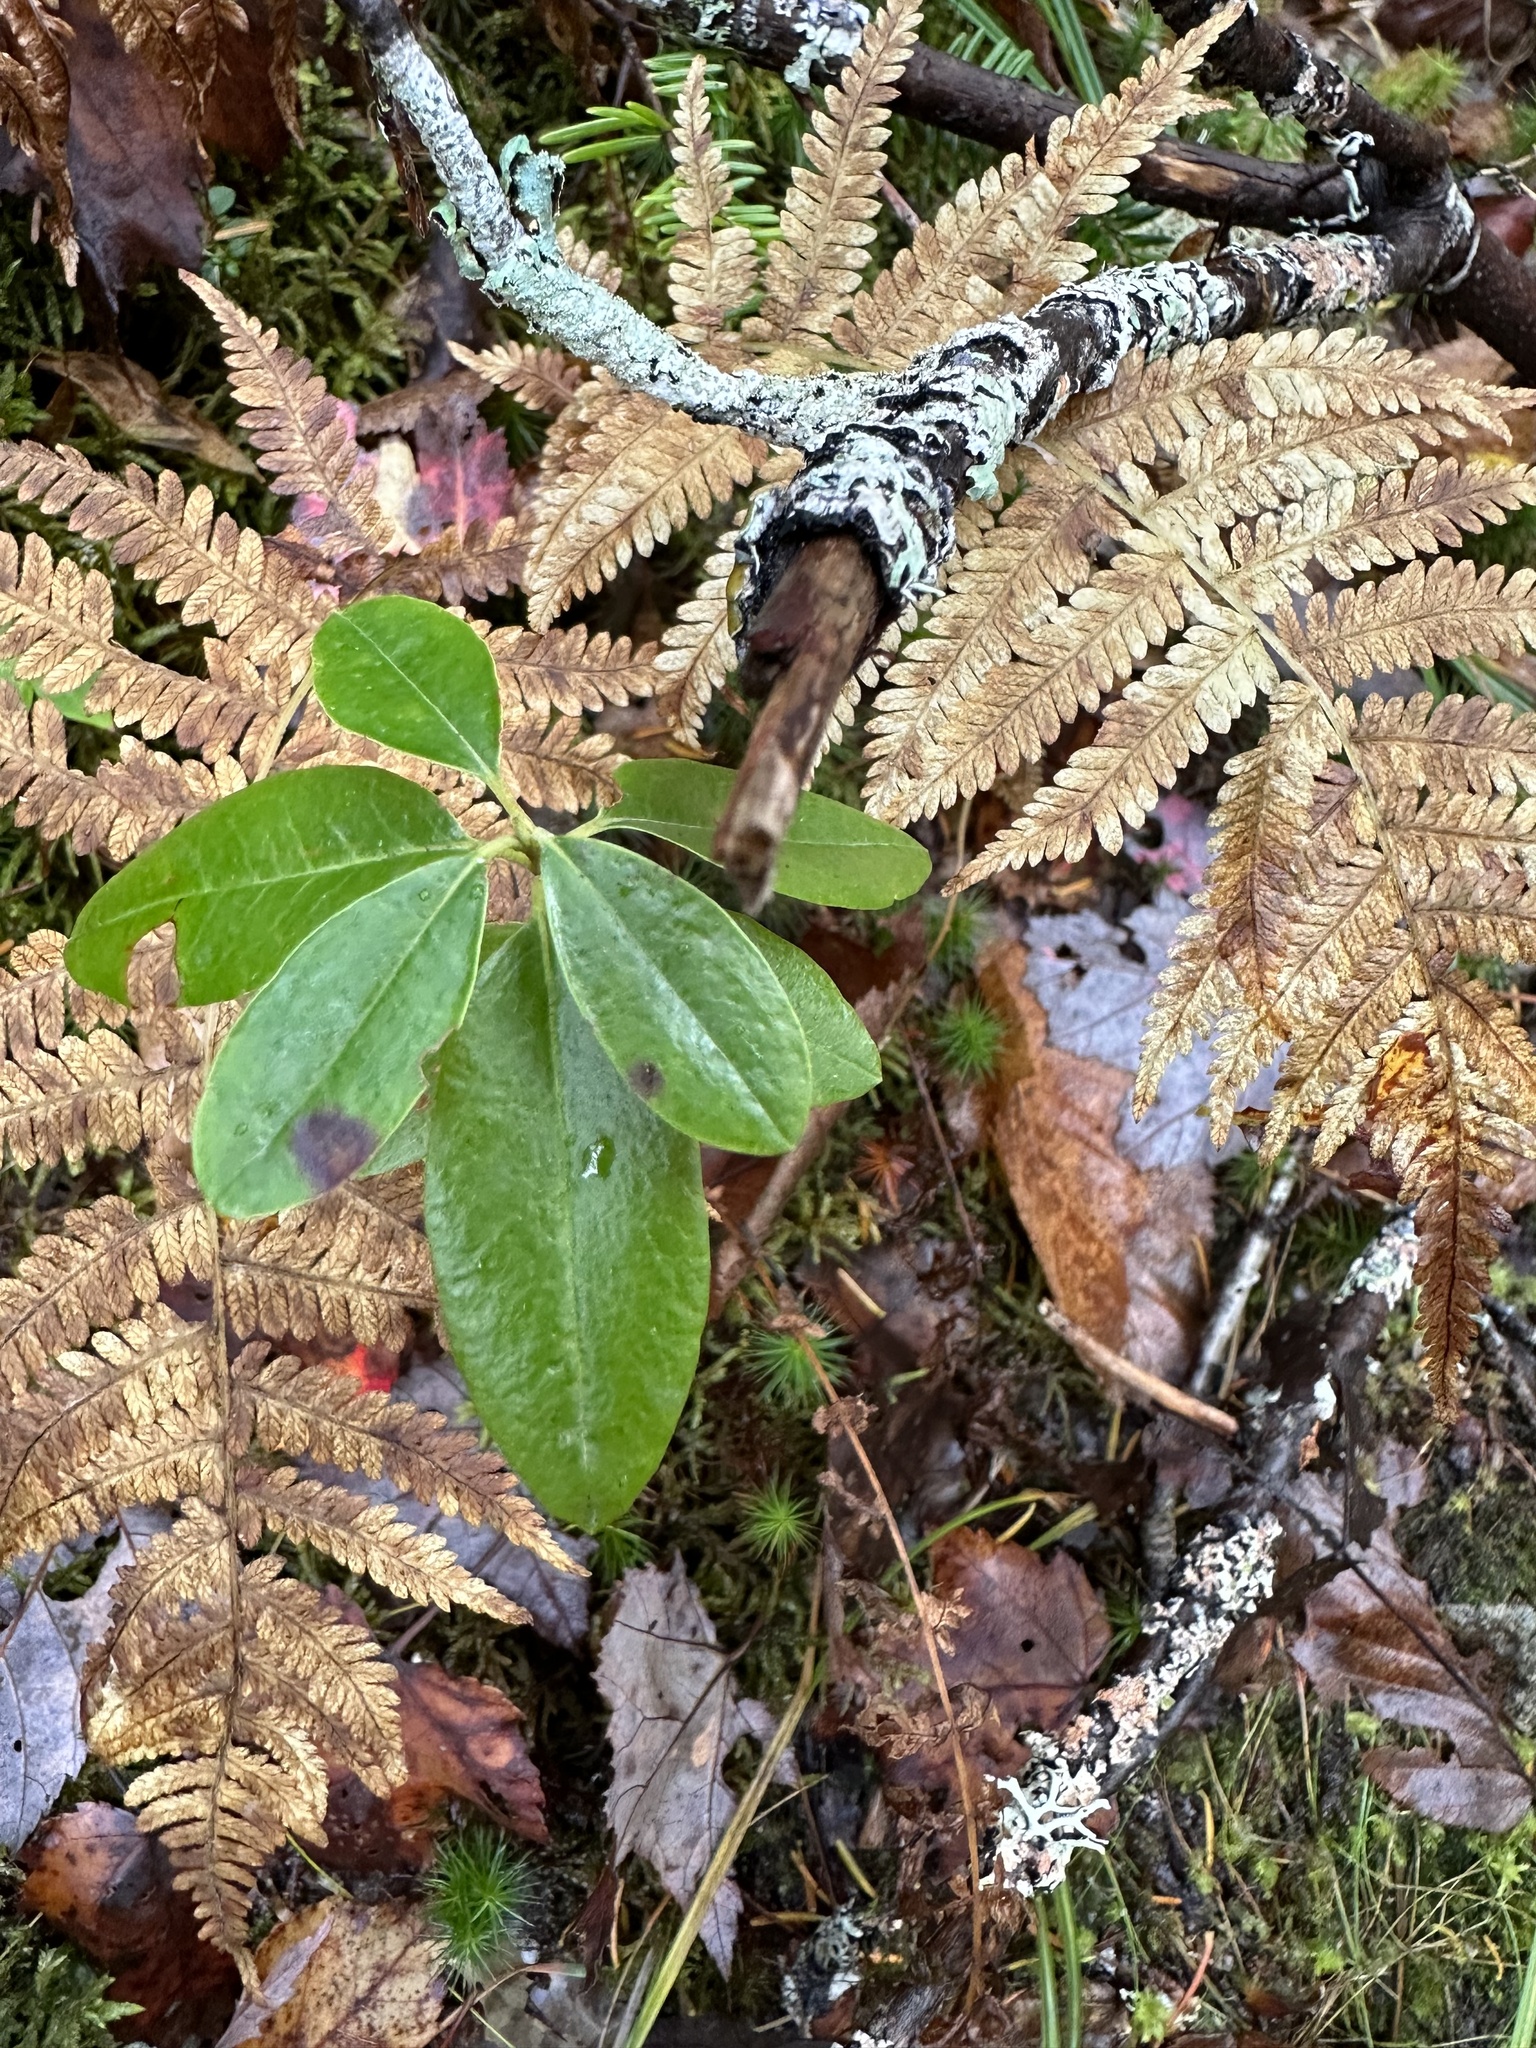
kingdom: Plantae
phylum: Tracheophyta
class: Magnoliopsida
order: Ericales
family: Ericaceae
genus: Kalmia
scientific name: Kalmia angustifolia
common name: Sheep-laurel
